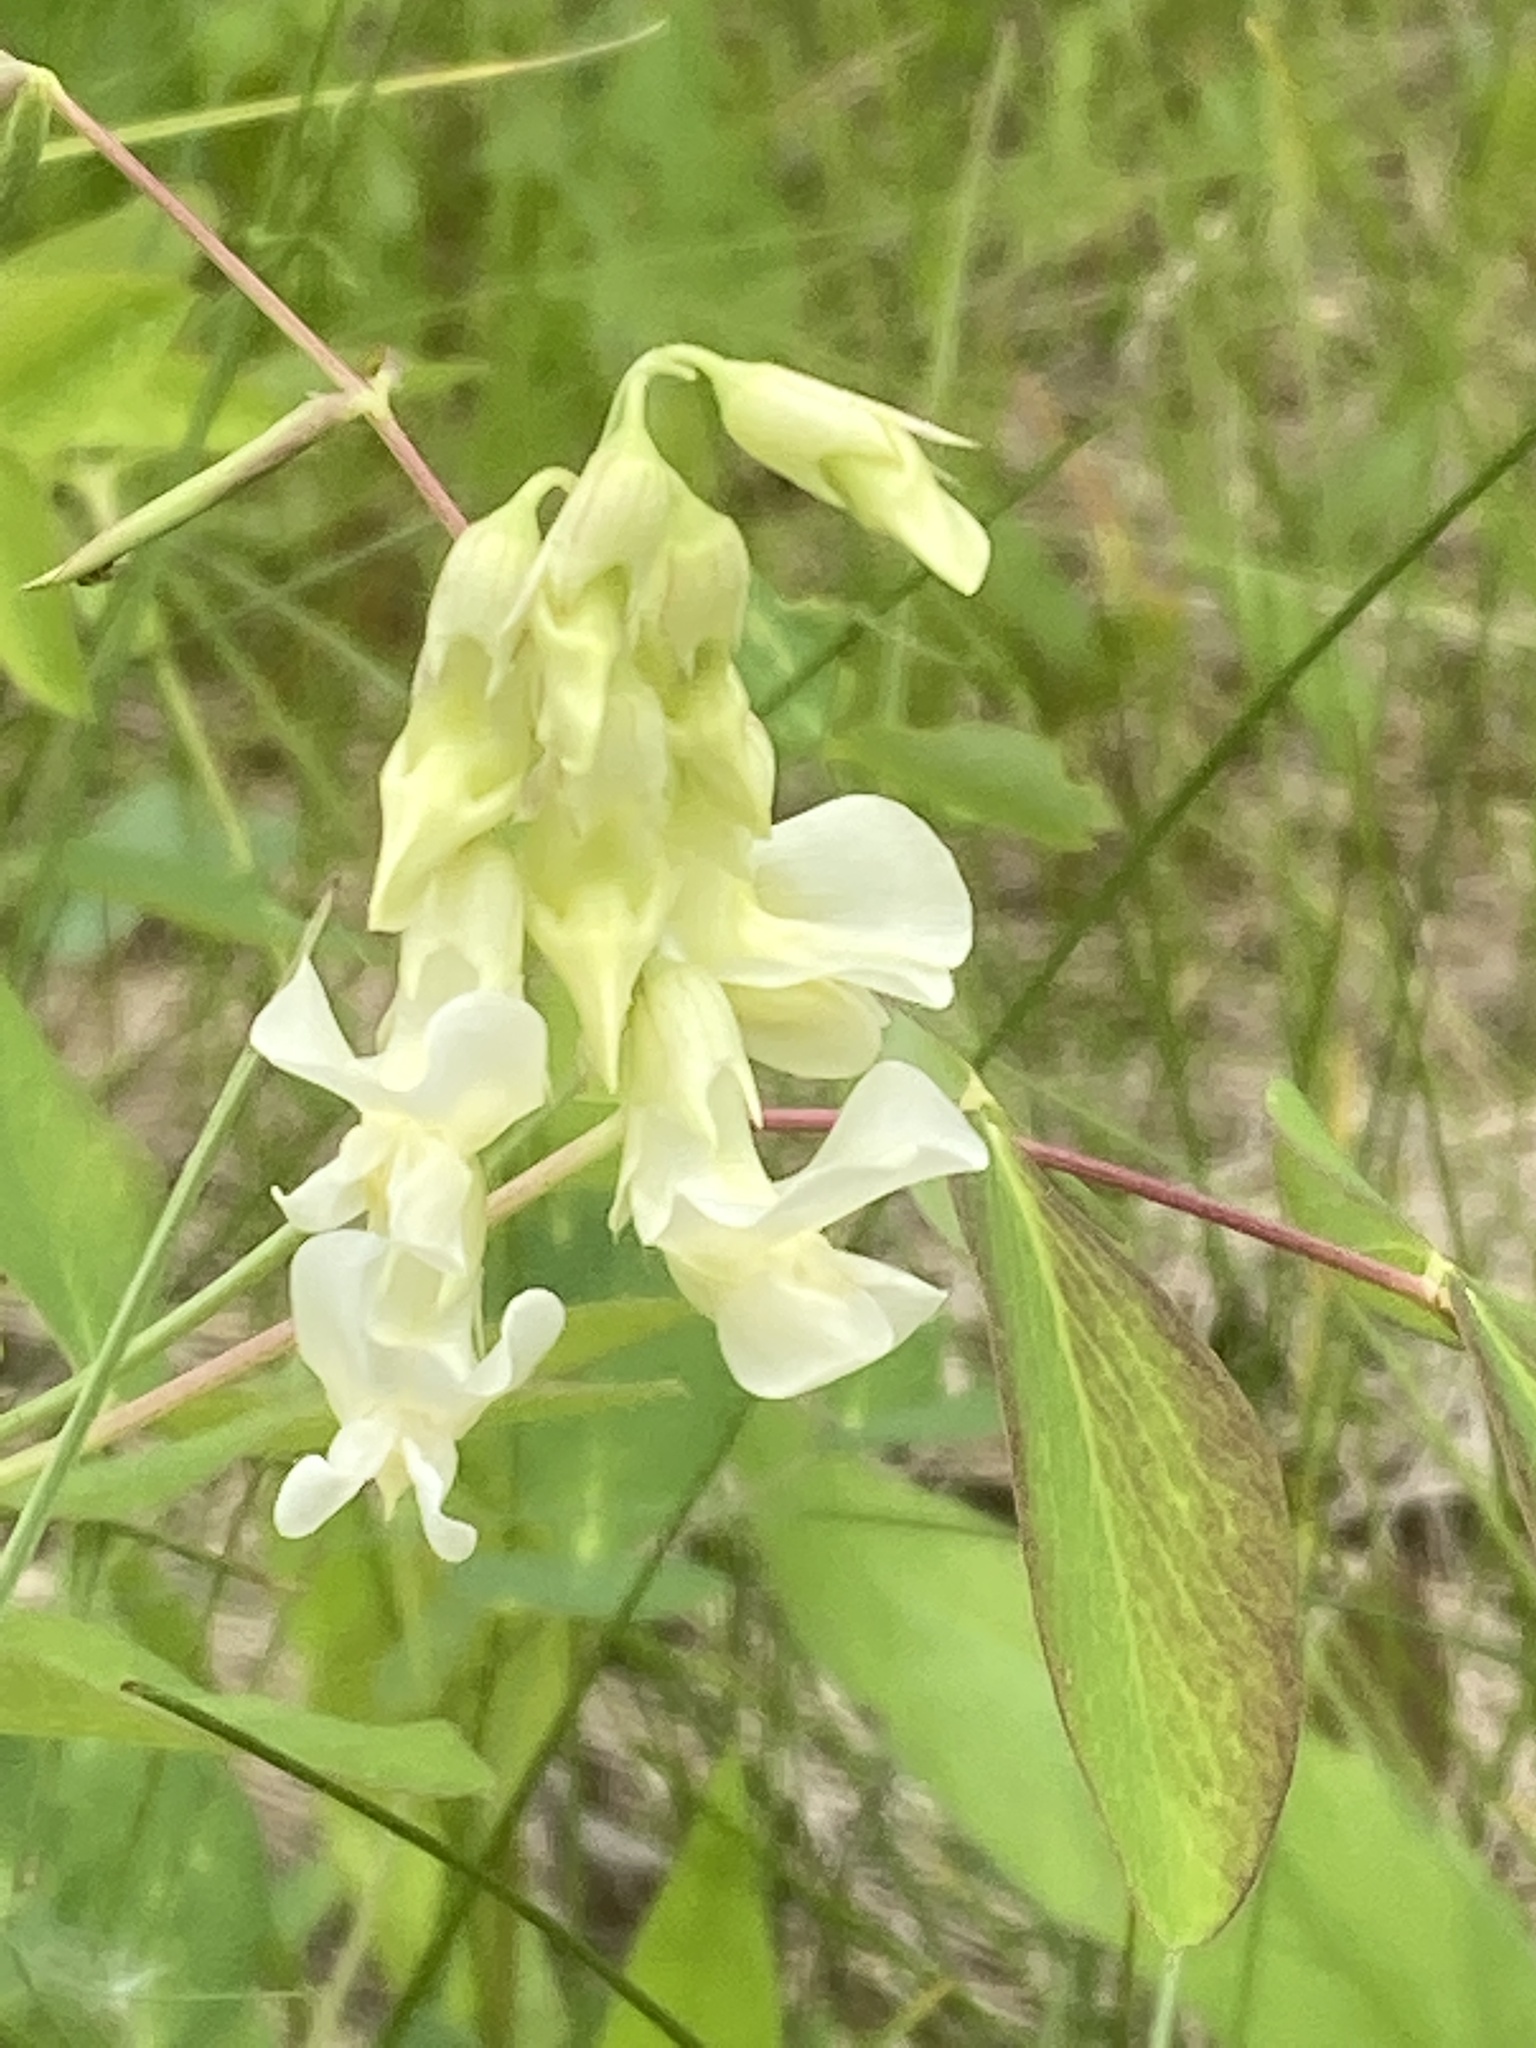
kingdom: Plantae
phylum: Tracheophyta
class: Magnoliopsida
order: Fabales
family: Fabaceae
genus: Lathyrus
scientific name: Lathyrus ochroleucus
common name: Pale vetchling
